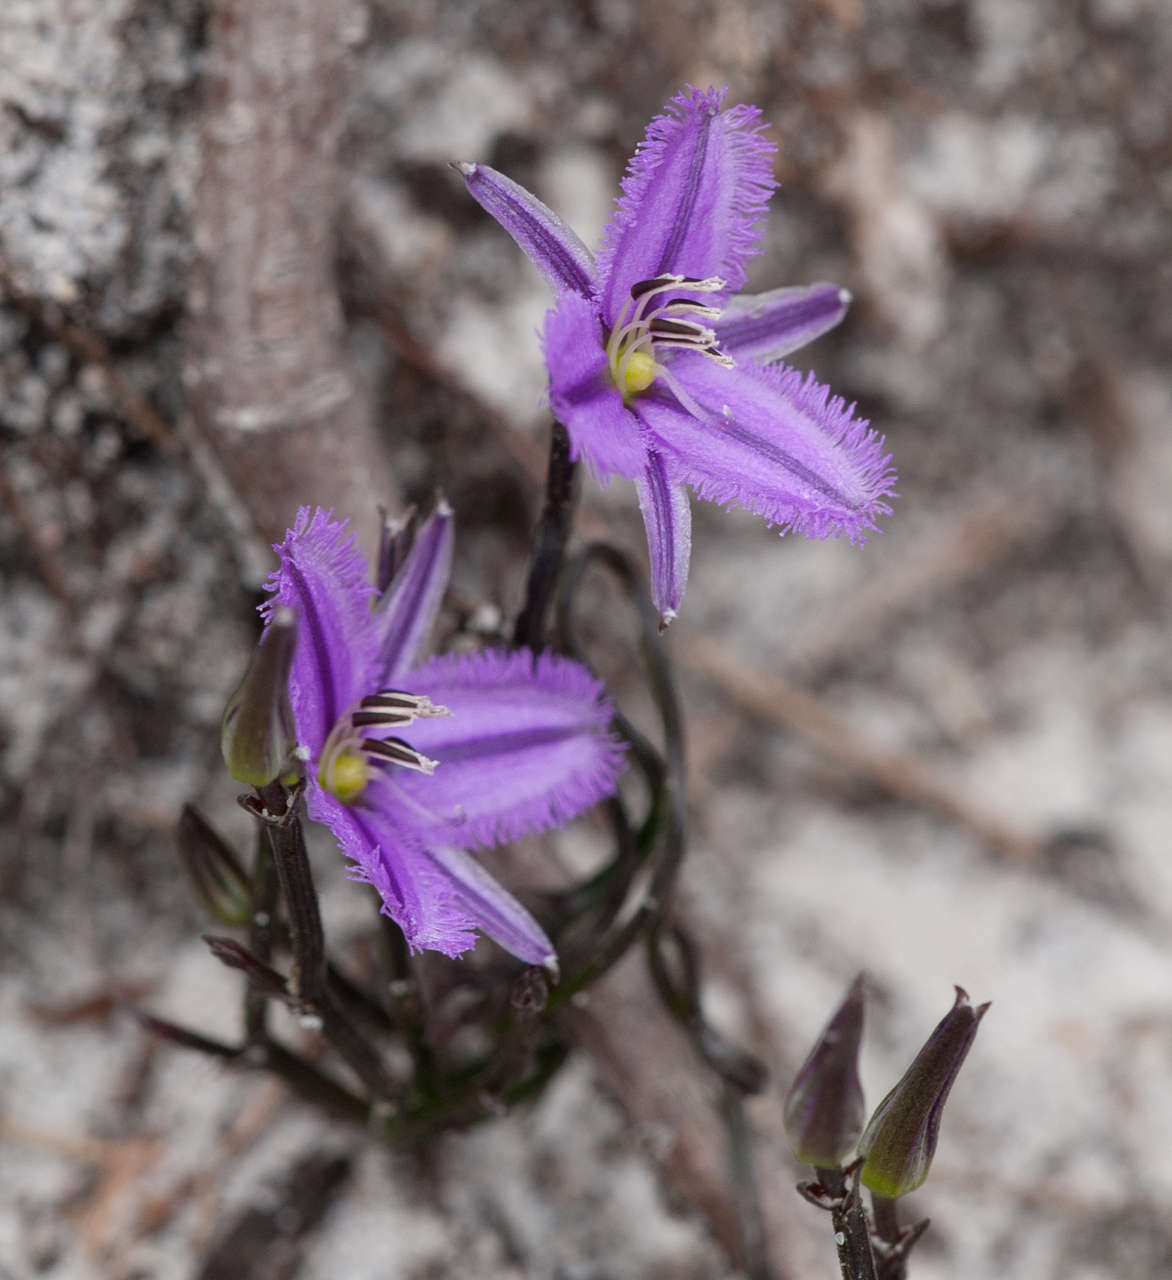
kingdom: Plantae
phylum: Tracheophyta
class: Liliopsida
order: Asparagales
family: Asparagaceae
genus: Thysanotus
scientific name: Thysanotus patersonii
